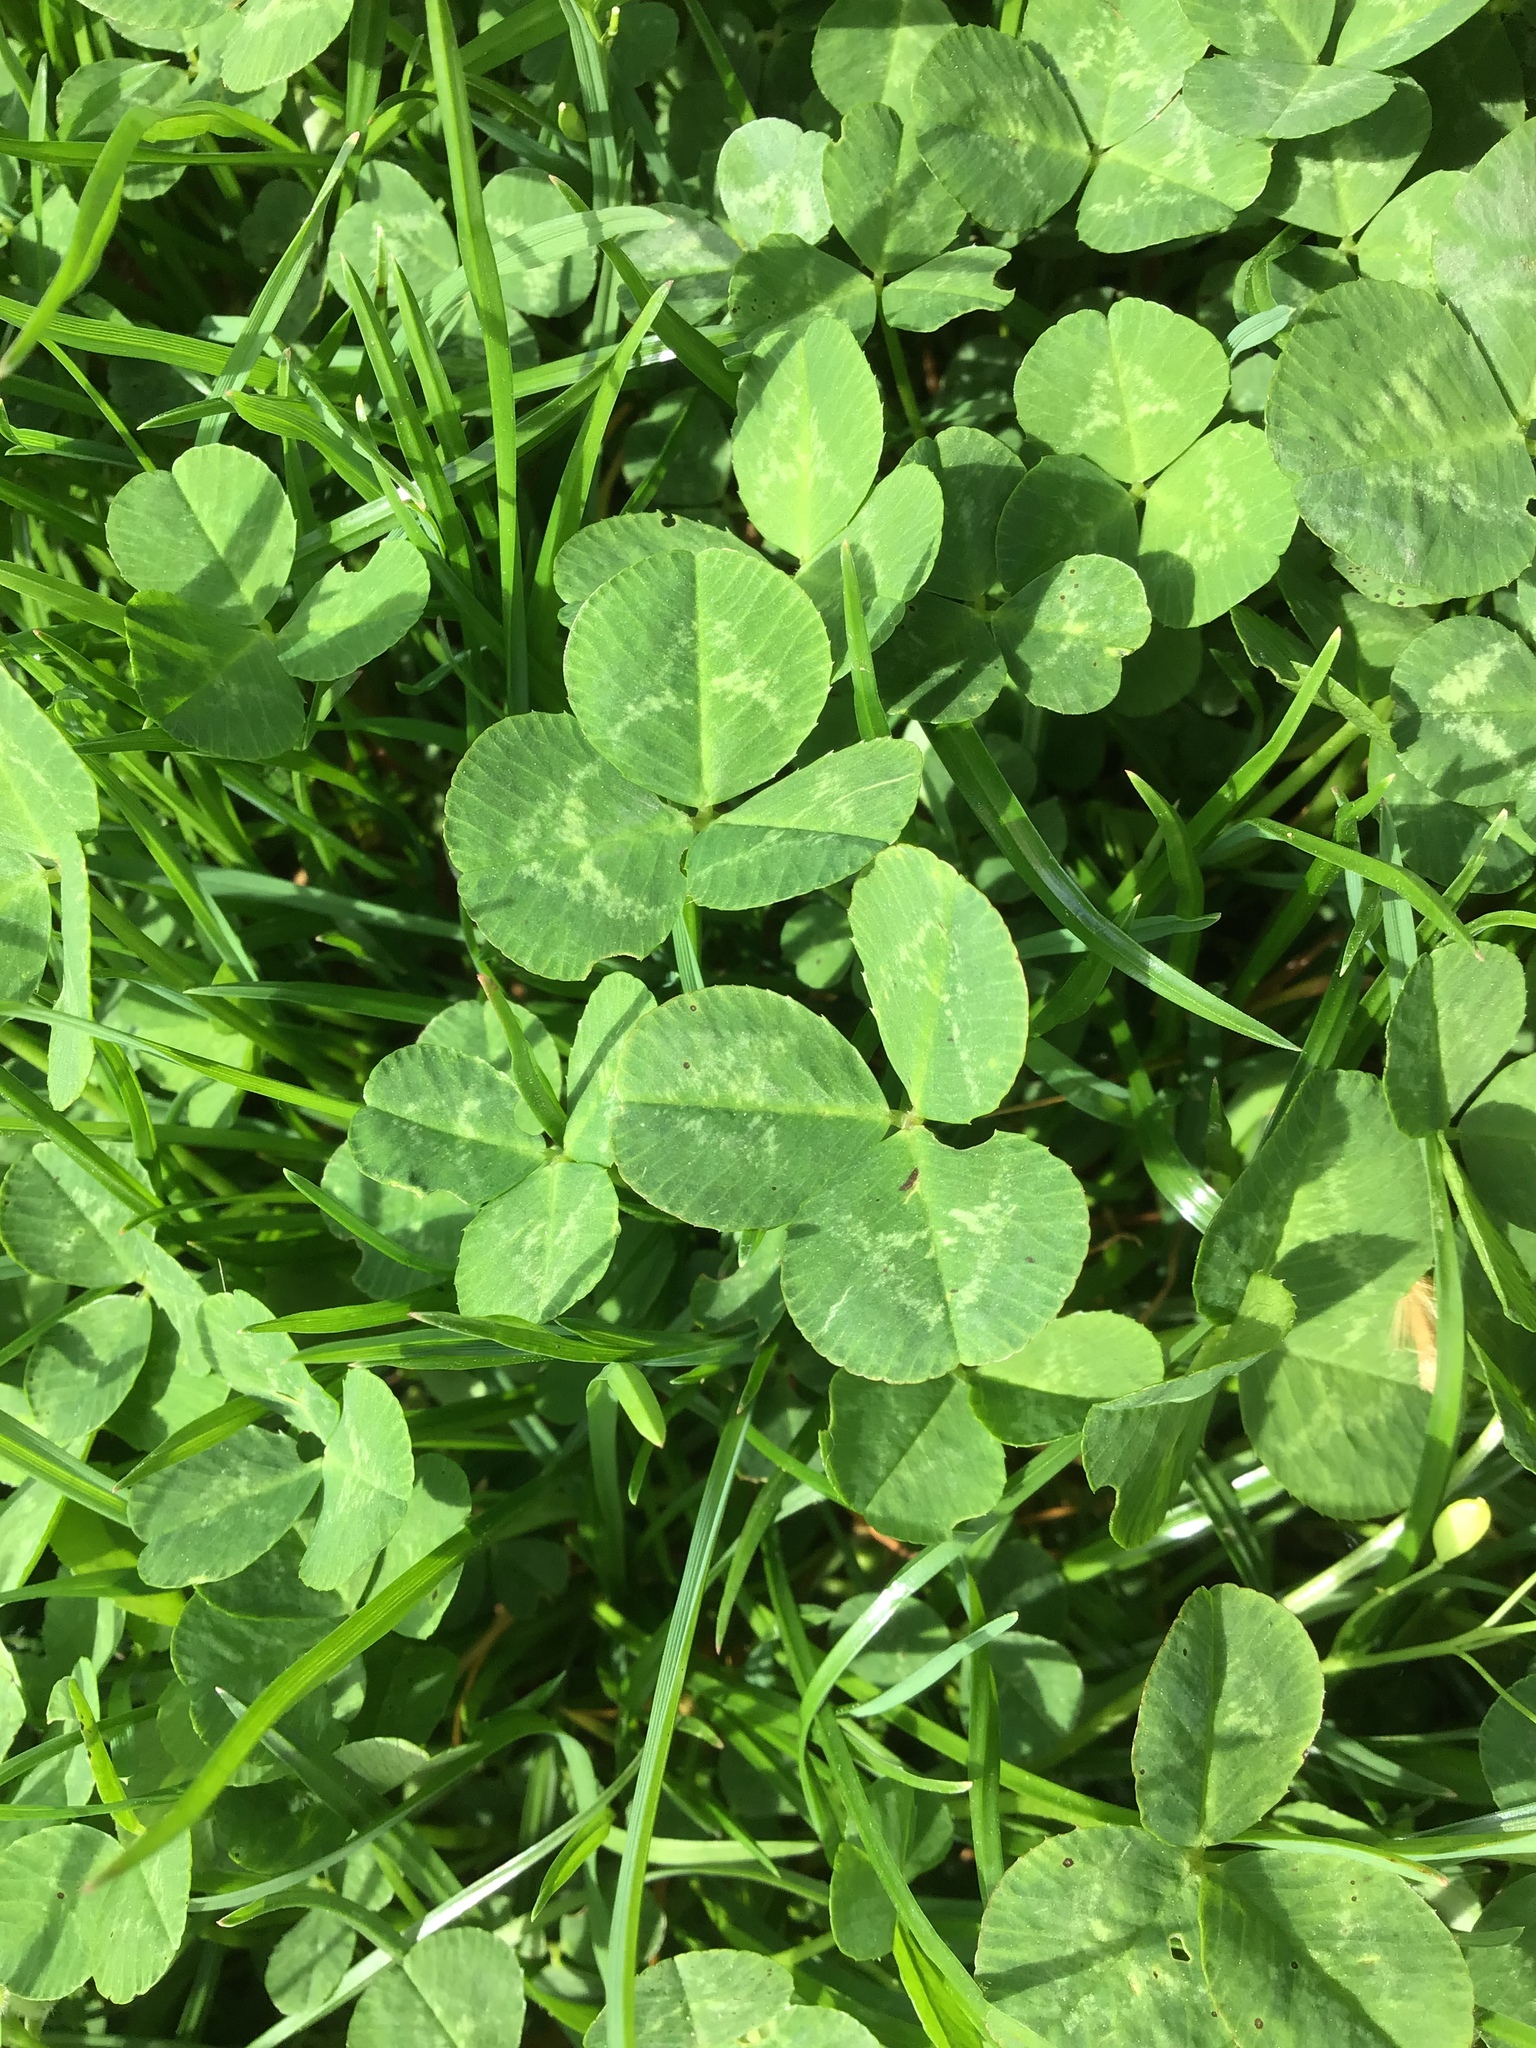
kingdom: Plantae
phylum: Tracheophyta
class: Magnoliopsida
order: Fabales
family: Fabaceae
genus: Trifolium
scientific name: Trifolium repens
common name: White clover
